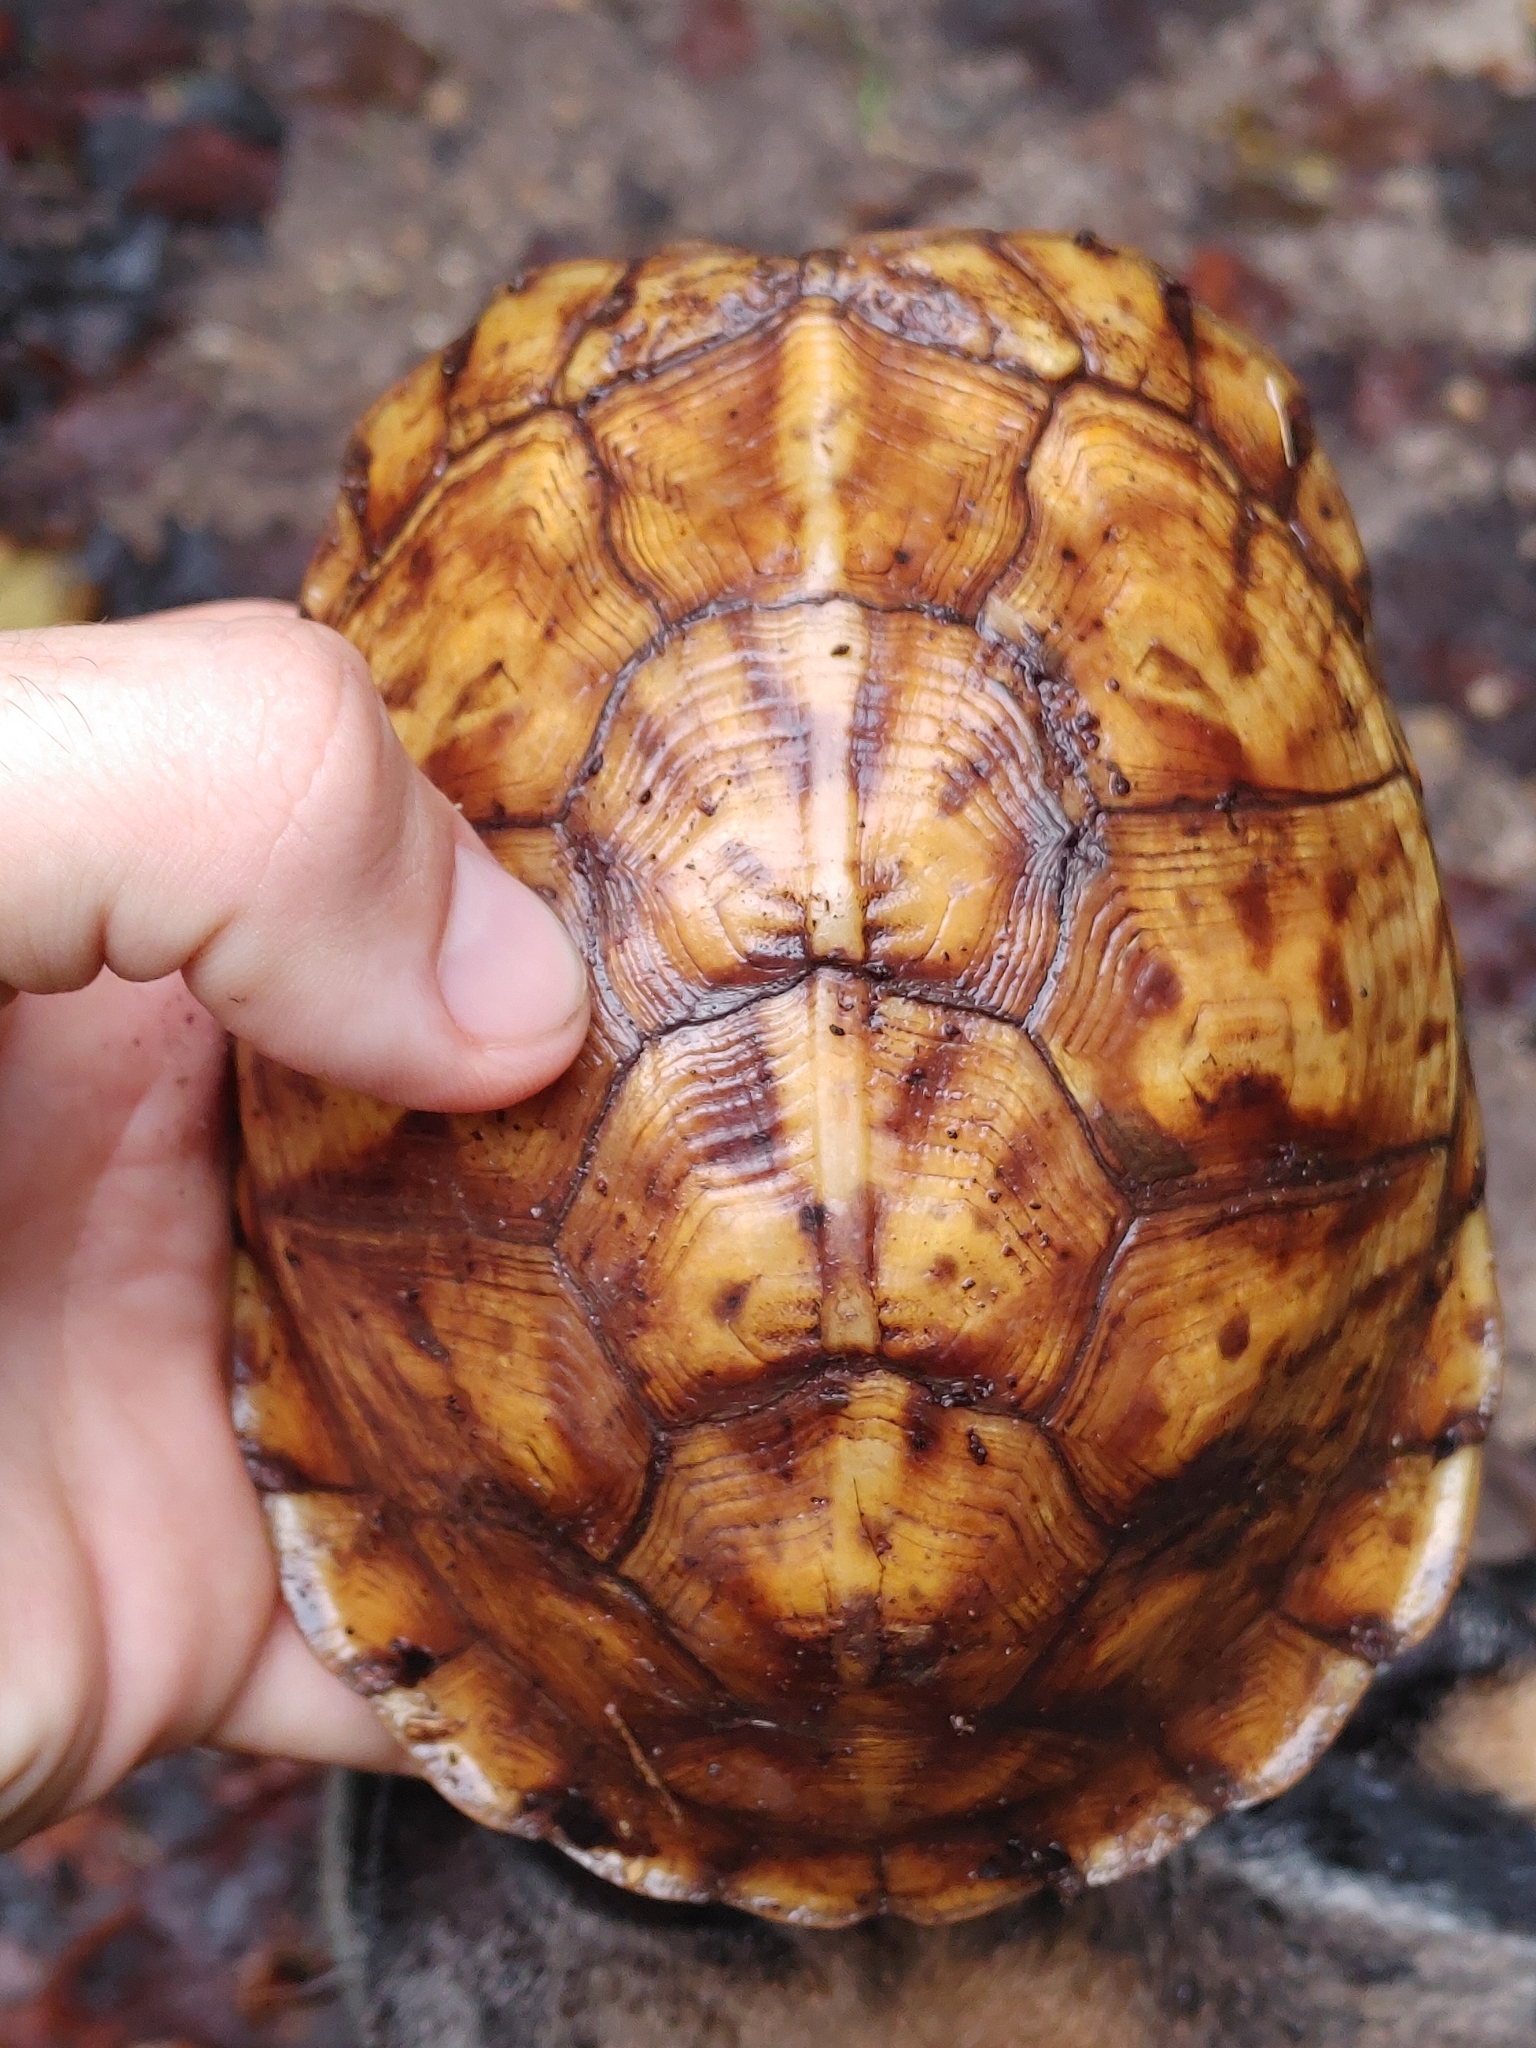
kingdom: Animalia
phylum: Chordata
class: Testudines
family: Emydidae
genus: Terrapene
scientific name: Terrapene carolina
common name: Common box turtle
